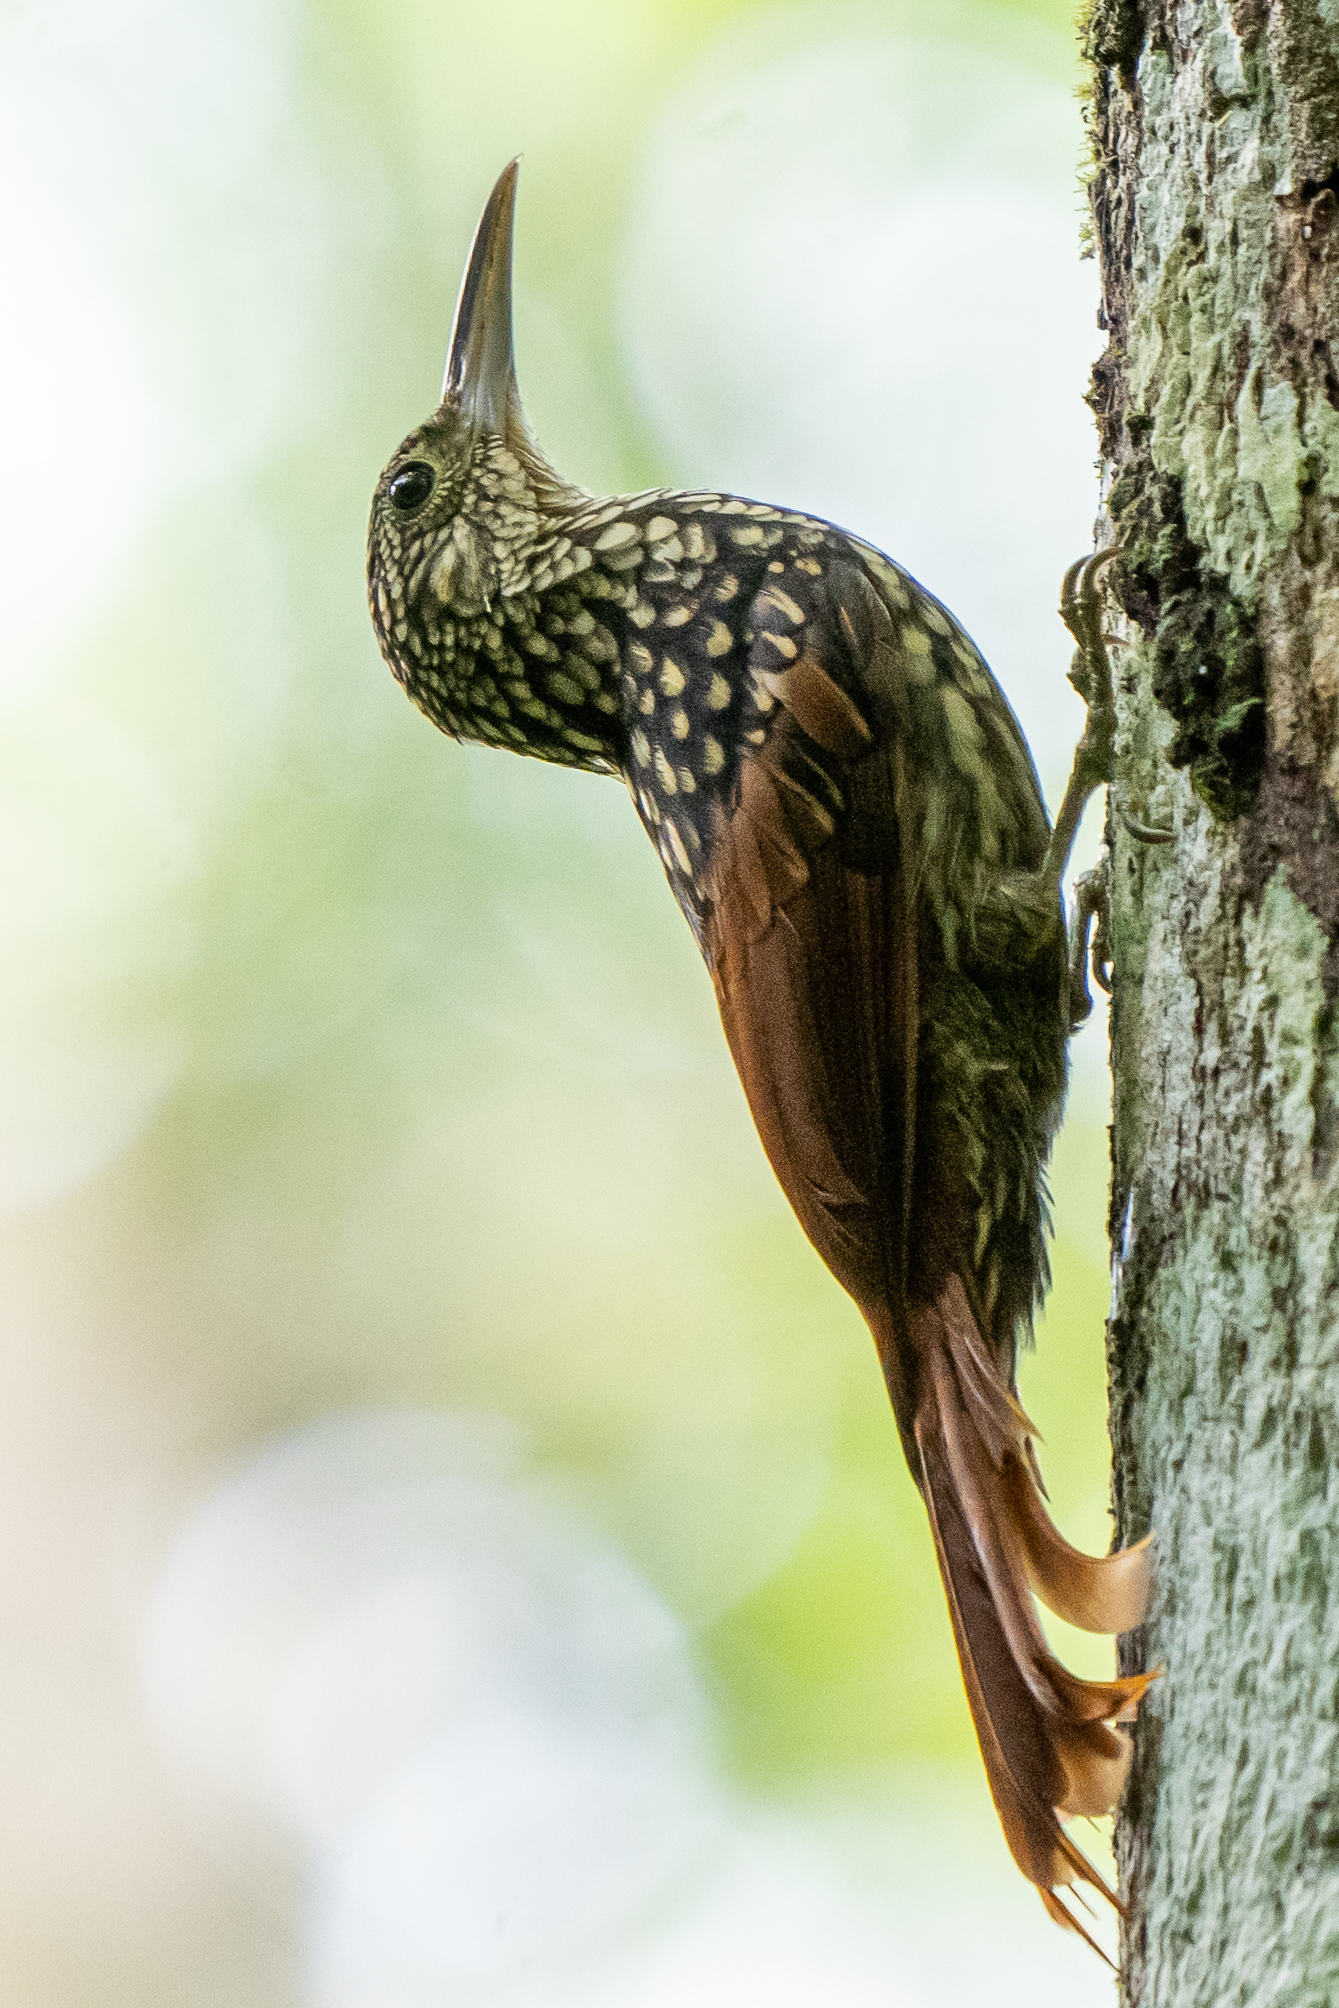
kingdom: Animalia
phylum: Chordata
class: Aves
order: Passeriformes
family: Furnariidae
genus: Xiphorhynchus
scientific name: Xiphorhynchus lachrymosus
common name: Black-striped woodcreeper
